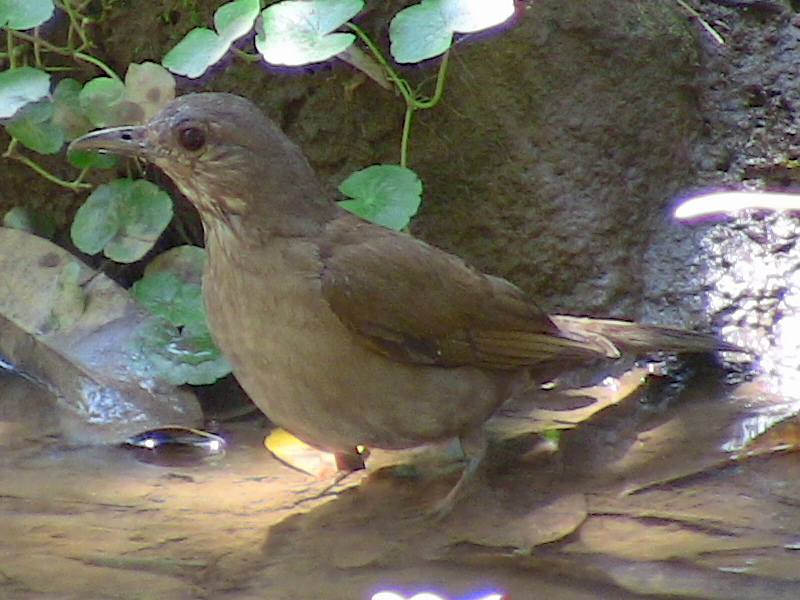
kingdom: Animalia
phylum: Chordata
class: Aves
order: Passeriformes
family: Turdidae
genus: Turdus
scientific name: Turdus leucomelas
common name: Pale-breasted thrush
